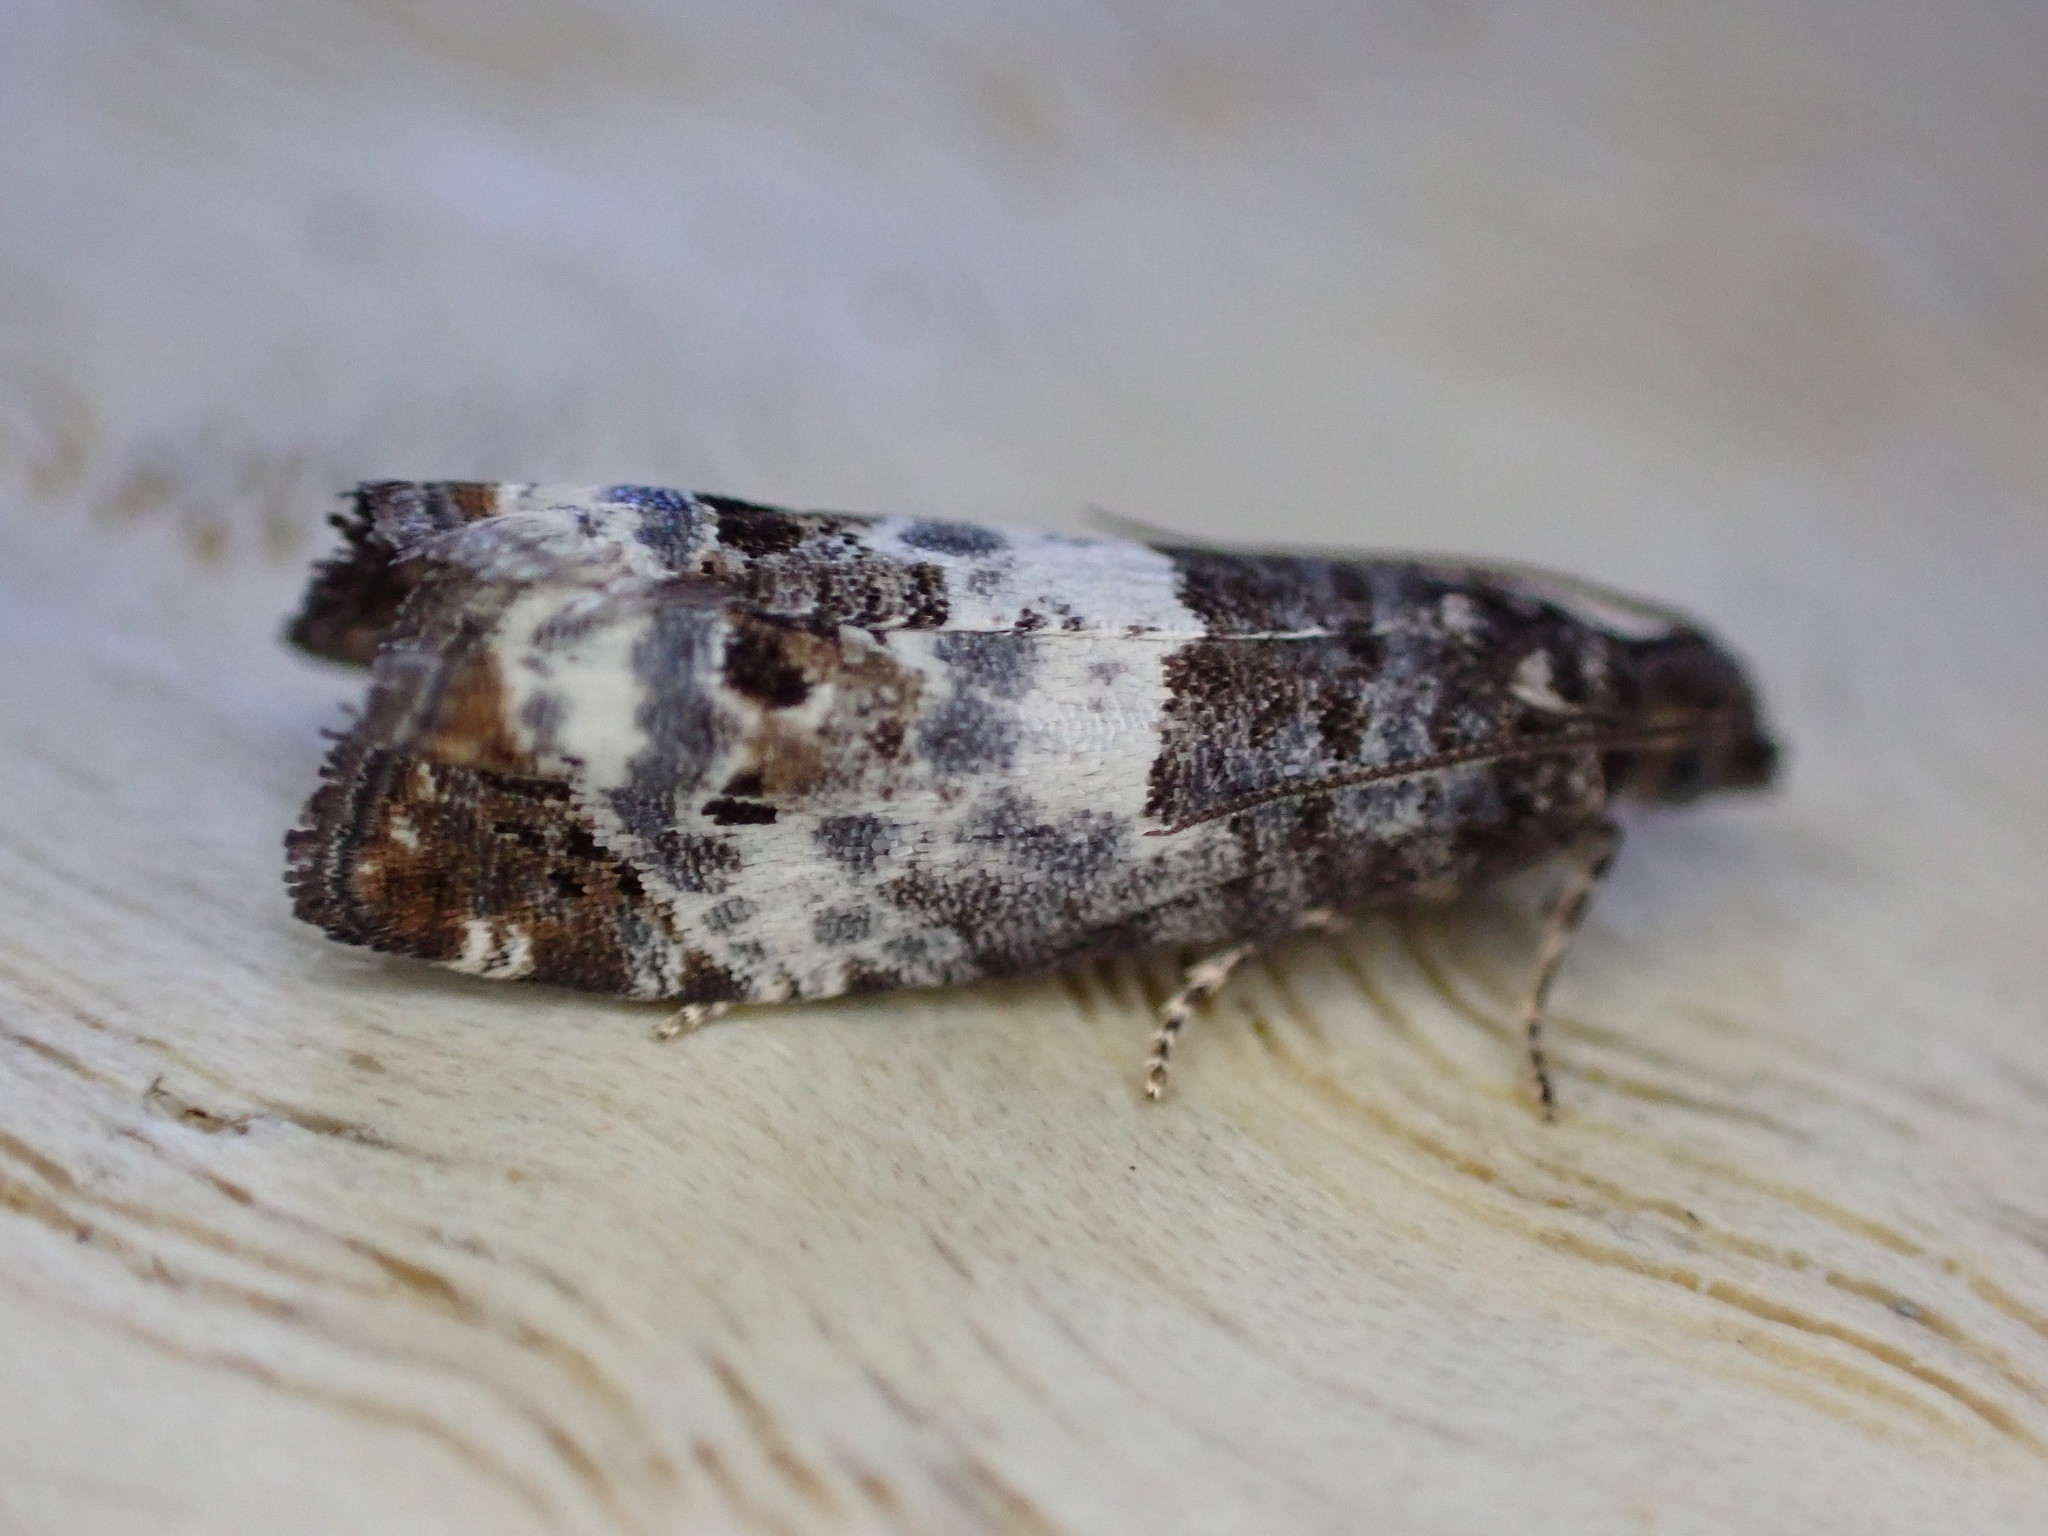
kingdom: Animalia
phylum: Arthropoda
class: Insecta
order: Lepidoptera
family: Tortricidae
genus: Notocelia
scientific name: Notocelia trimaculana
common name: Triple-blotched bell
